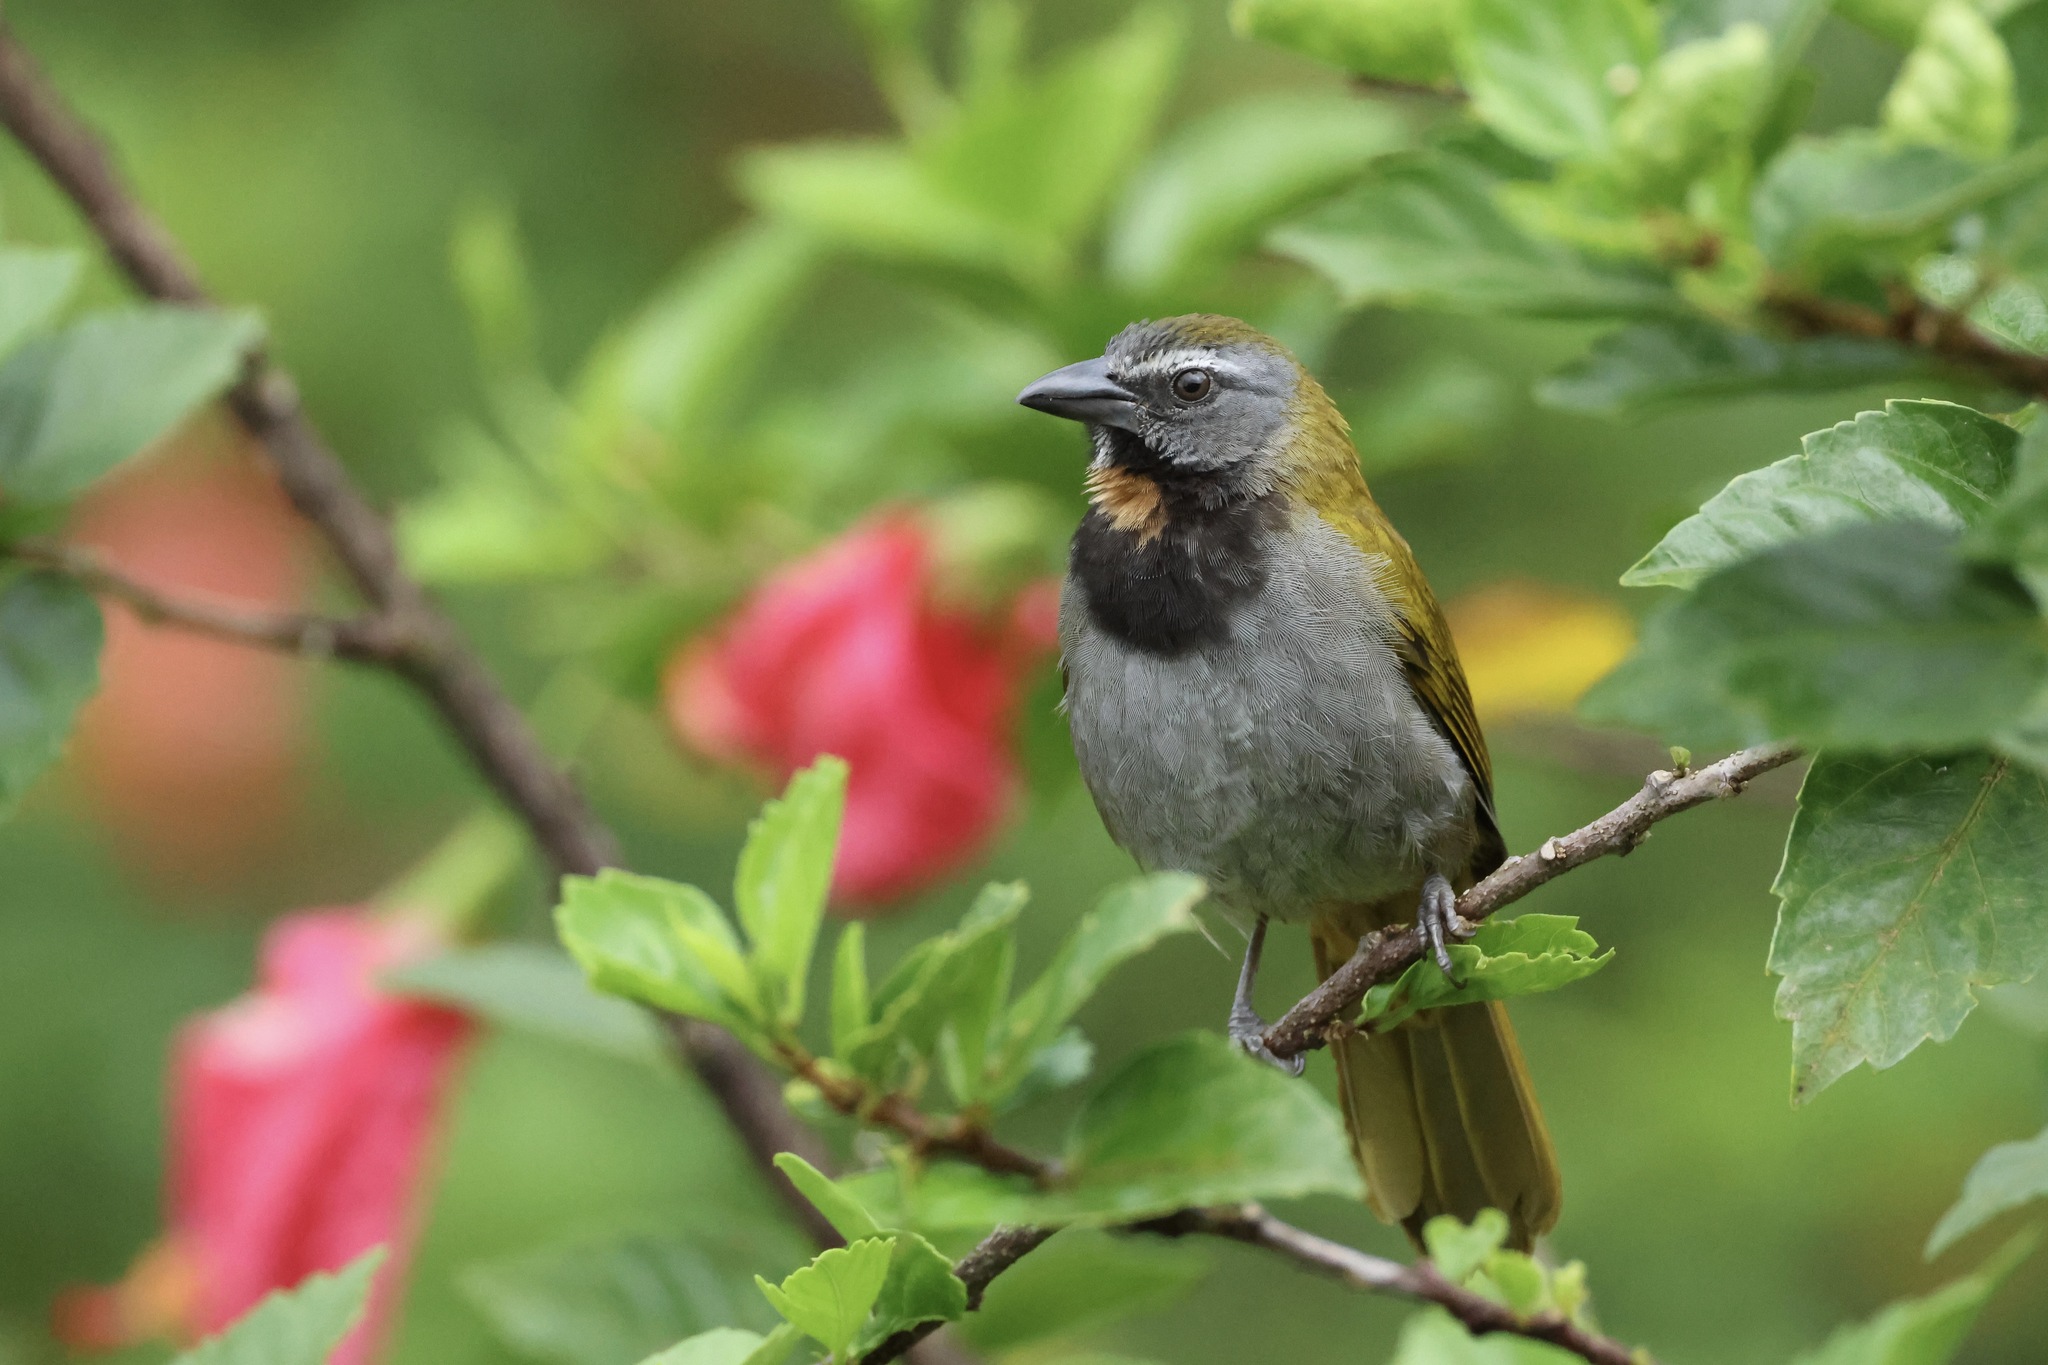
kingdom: Animalia
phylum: Chordata
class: Aves
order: Passeriformes
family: Thraupidae
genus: Saltator
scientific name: Saltator maximus
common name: Buff-throated saltator
